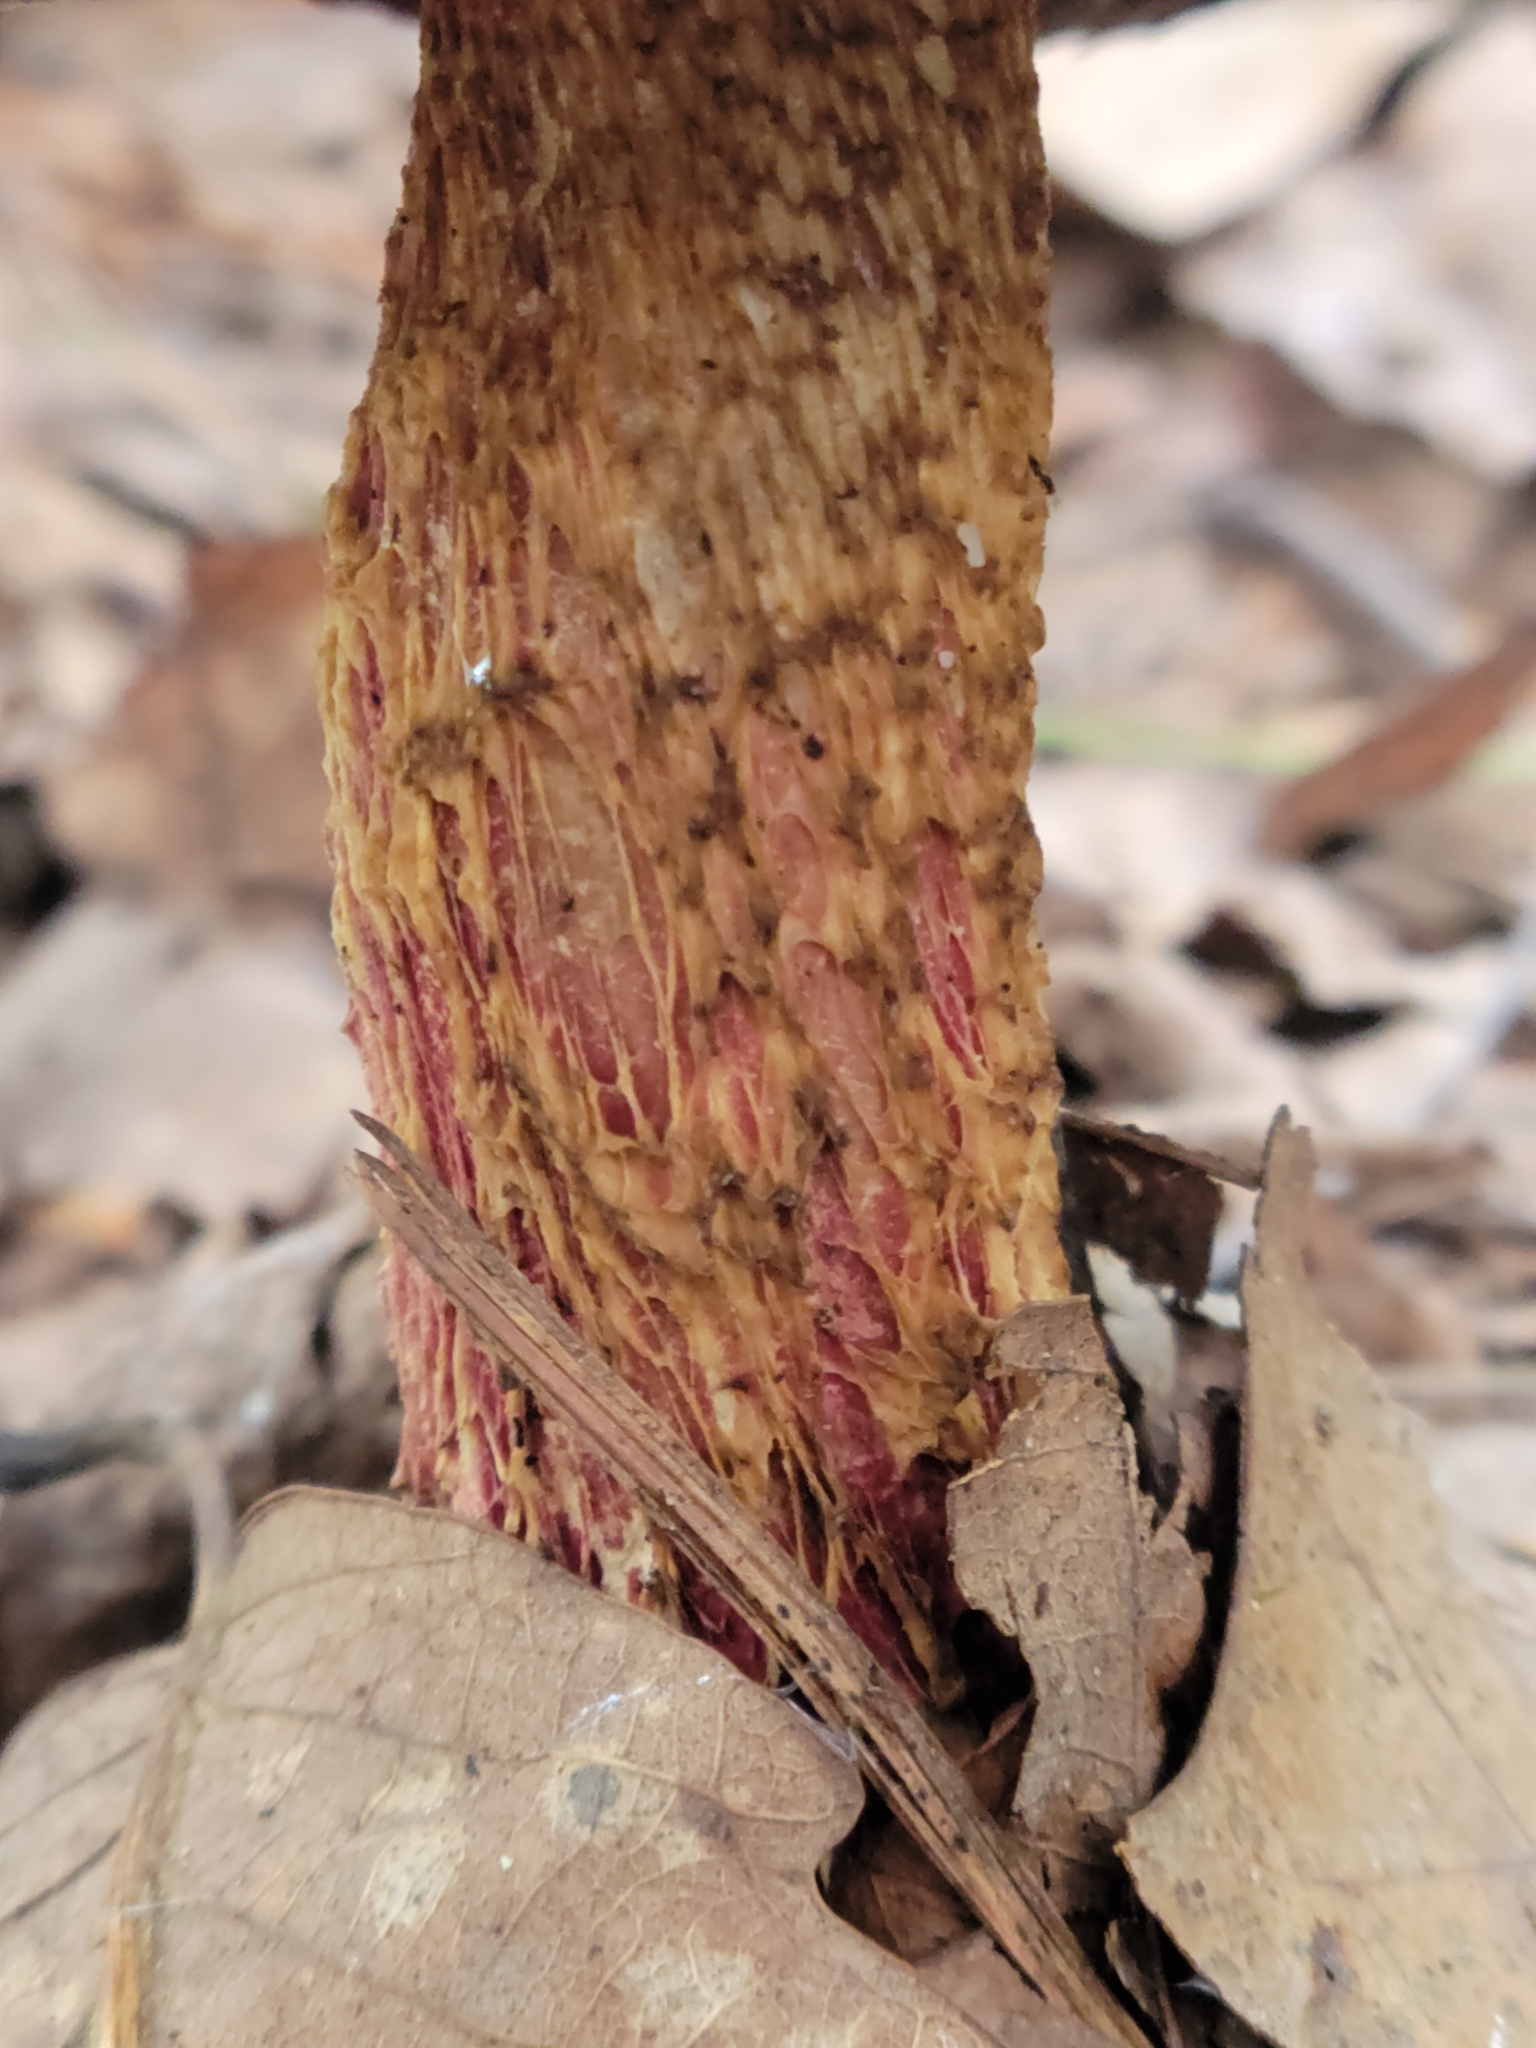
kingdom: Fungi
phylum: Basidiomycota
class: Agaricomycetes
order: Boletales
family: Boletaceae
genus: Butyriboletus
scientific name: Butyriboletus frostii
